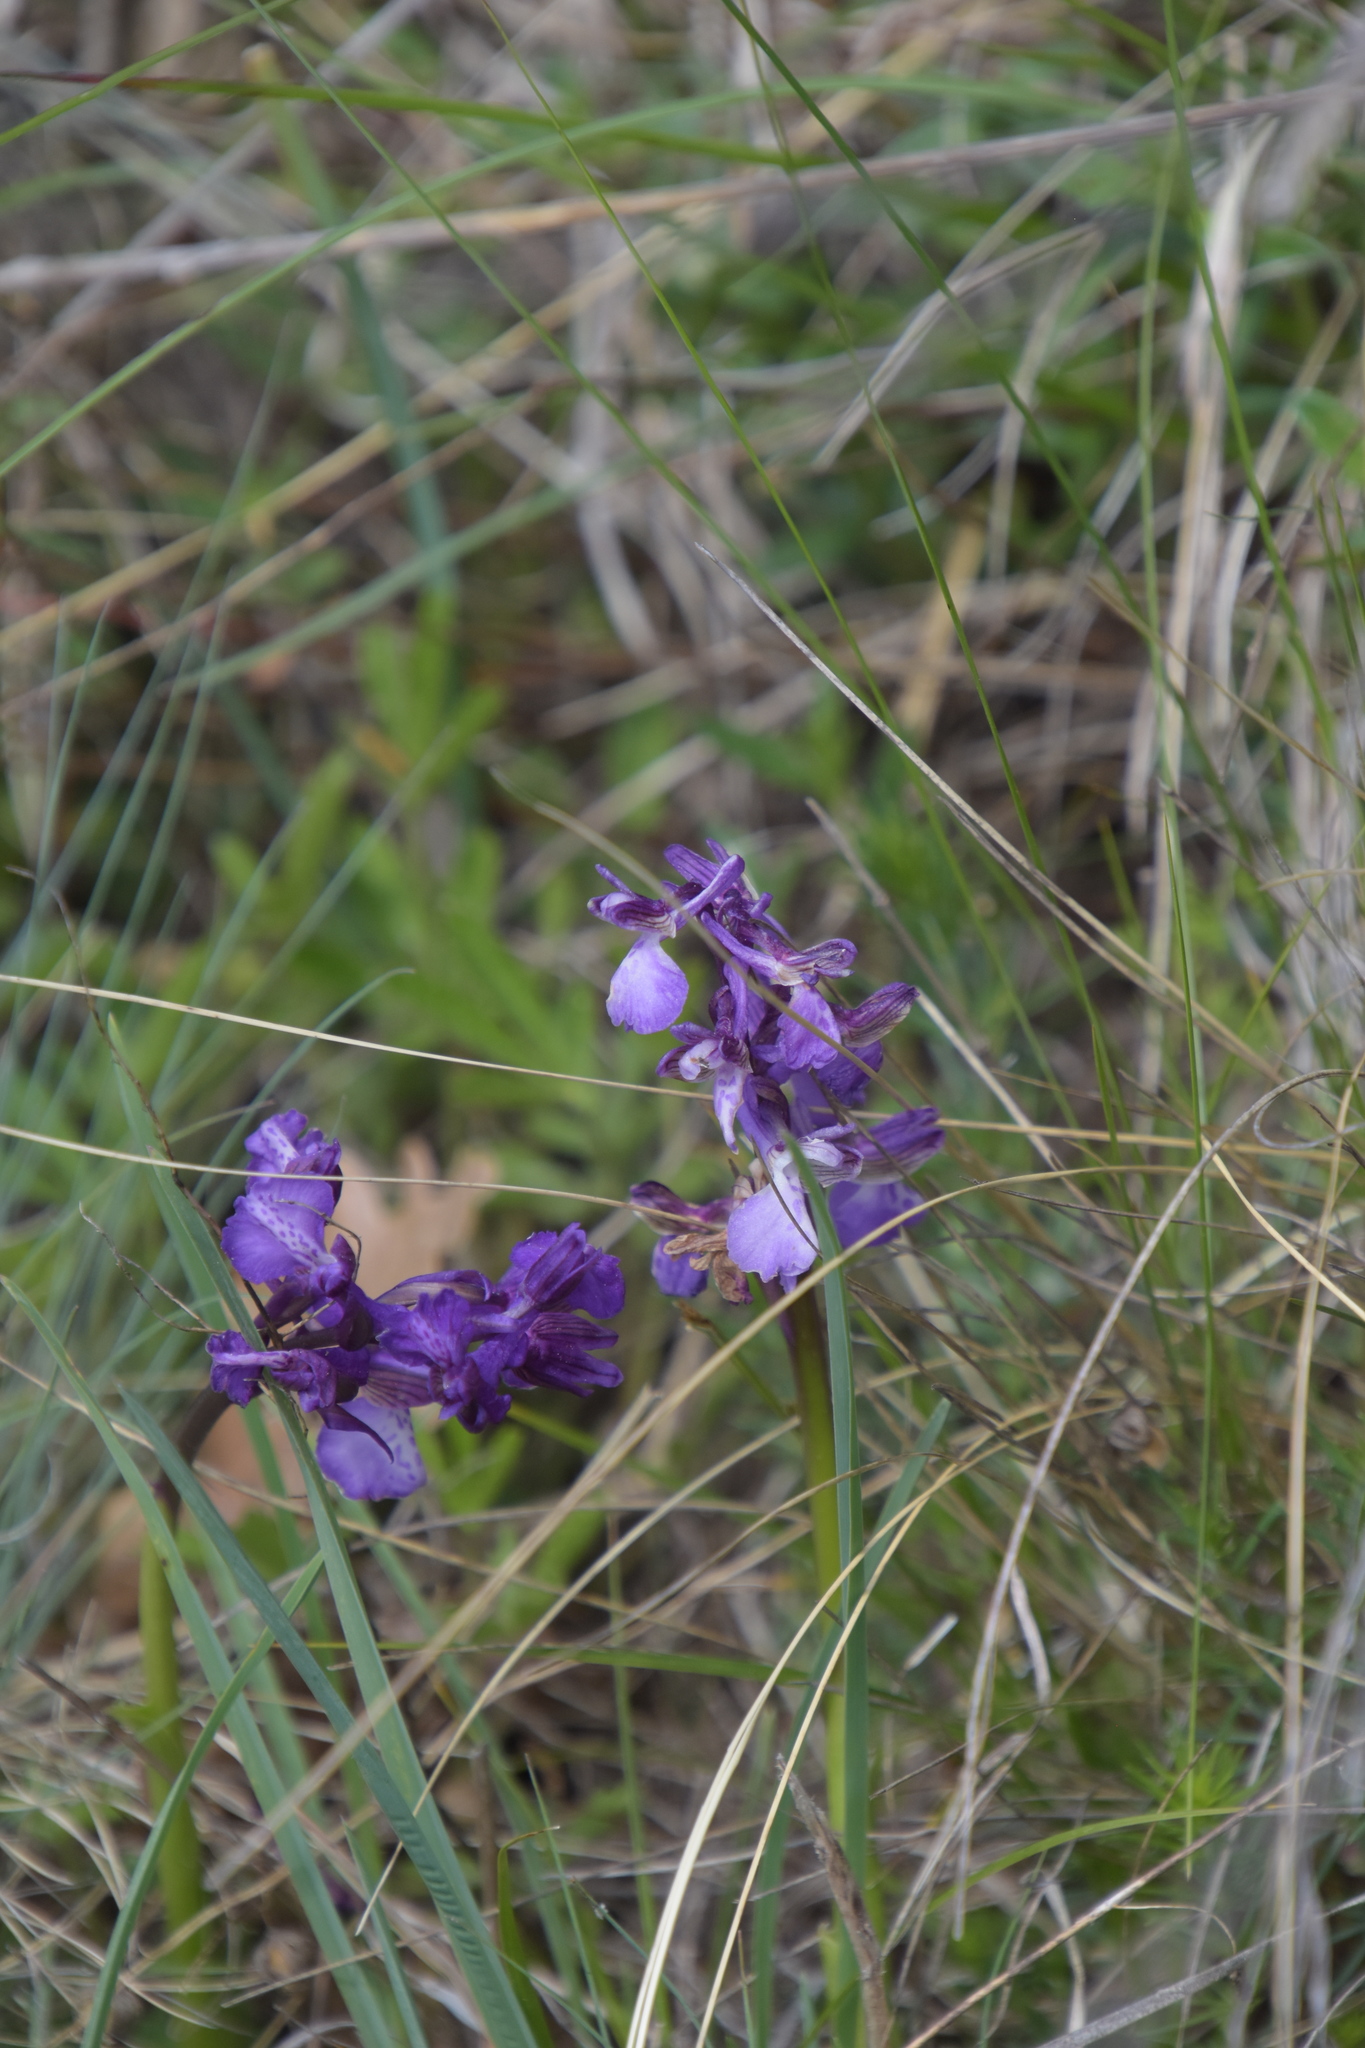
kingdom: Plantae
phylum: Tracheophyta
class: Liliopsida
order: Asparagales
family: Orchidaceae
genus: Anacamptis
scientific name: Anacamptis morio
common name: Green-winged orchid
